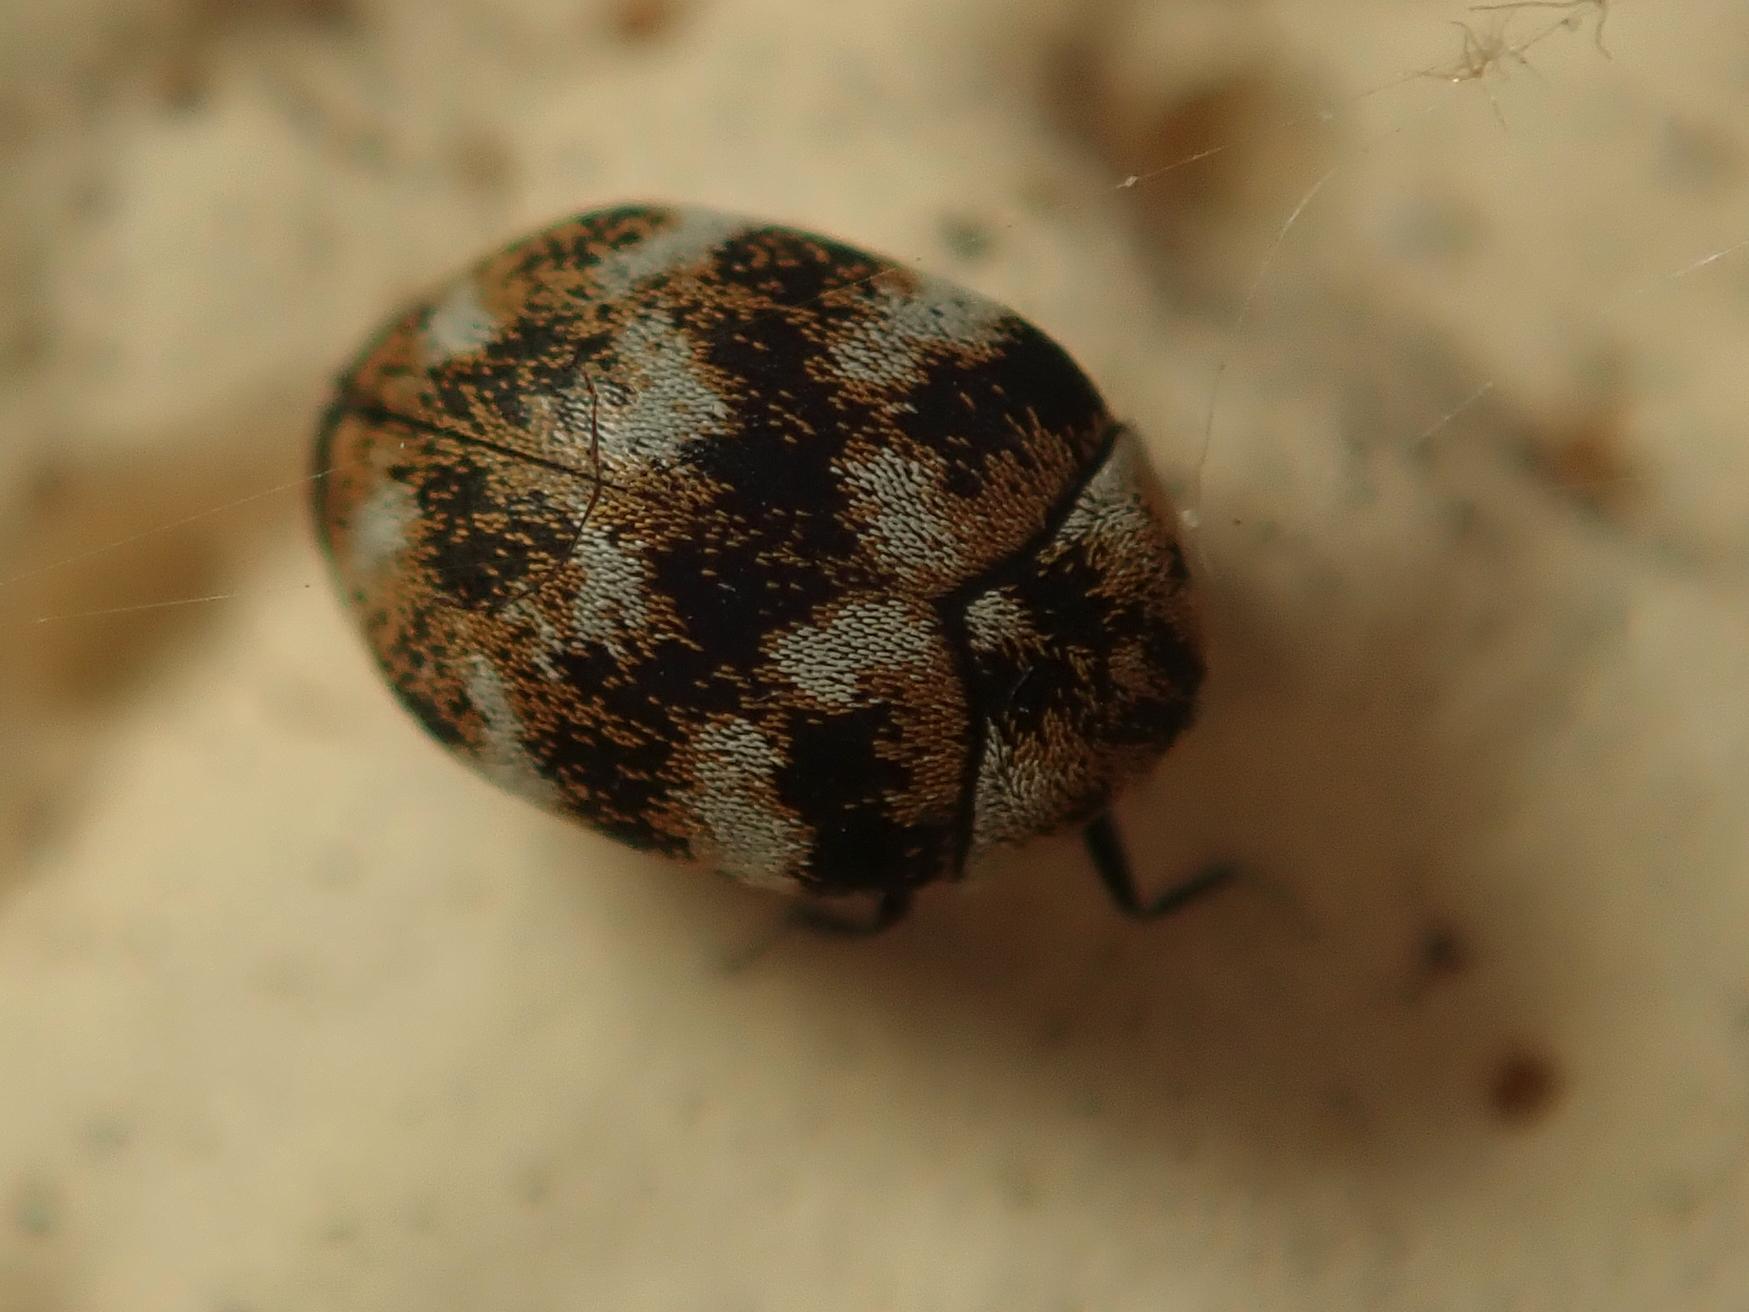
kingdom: Animalia
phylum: Arthropoda
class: Insecta
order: Coleoptera
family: Dermestidae
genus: Anthrenus
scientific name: Anthrenus verbasci
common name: Varied carpet beetle
